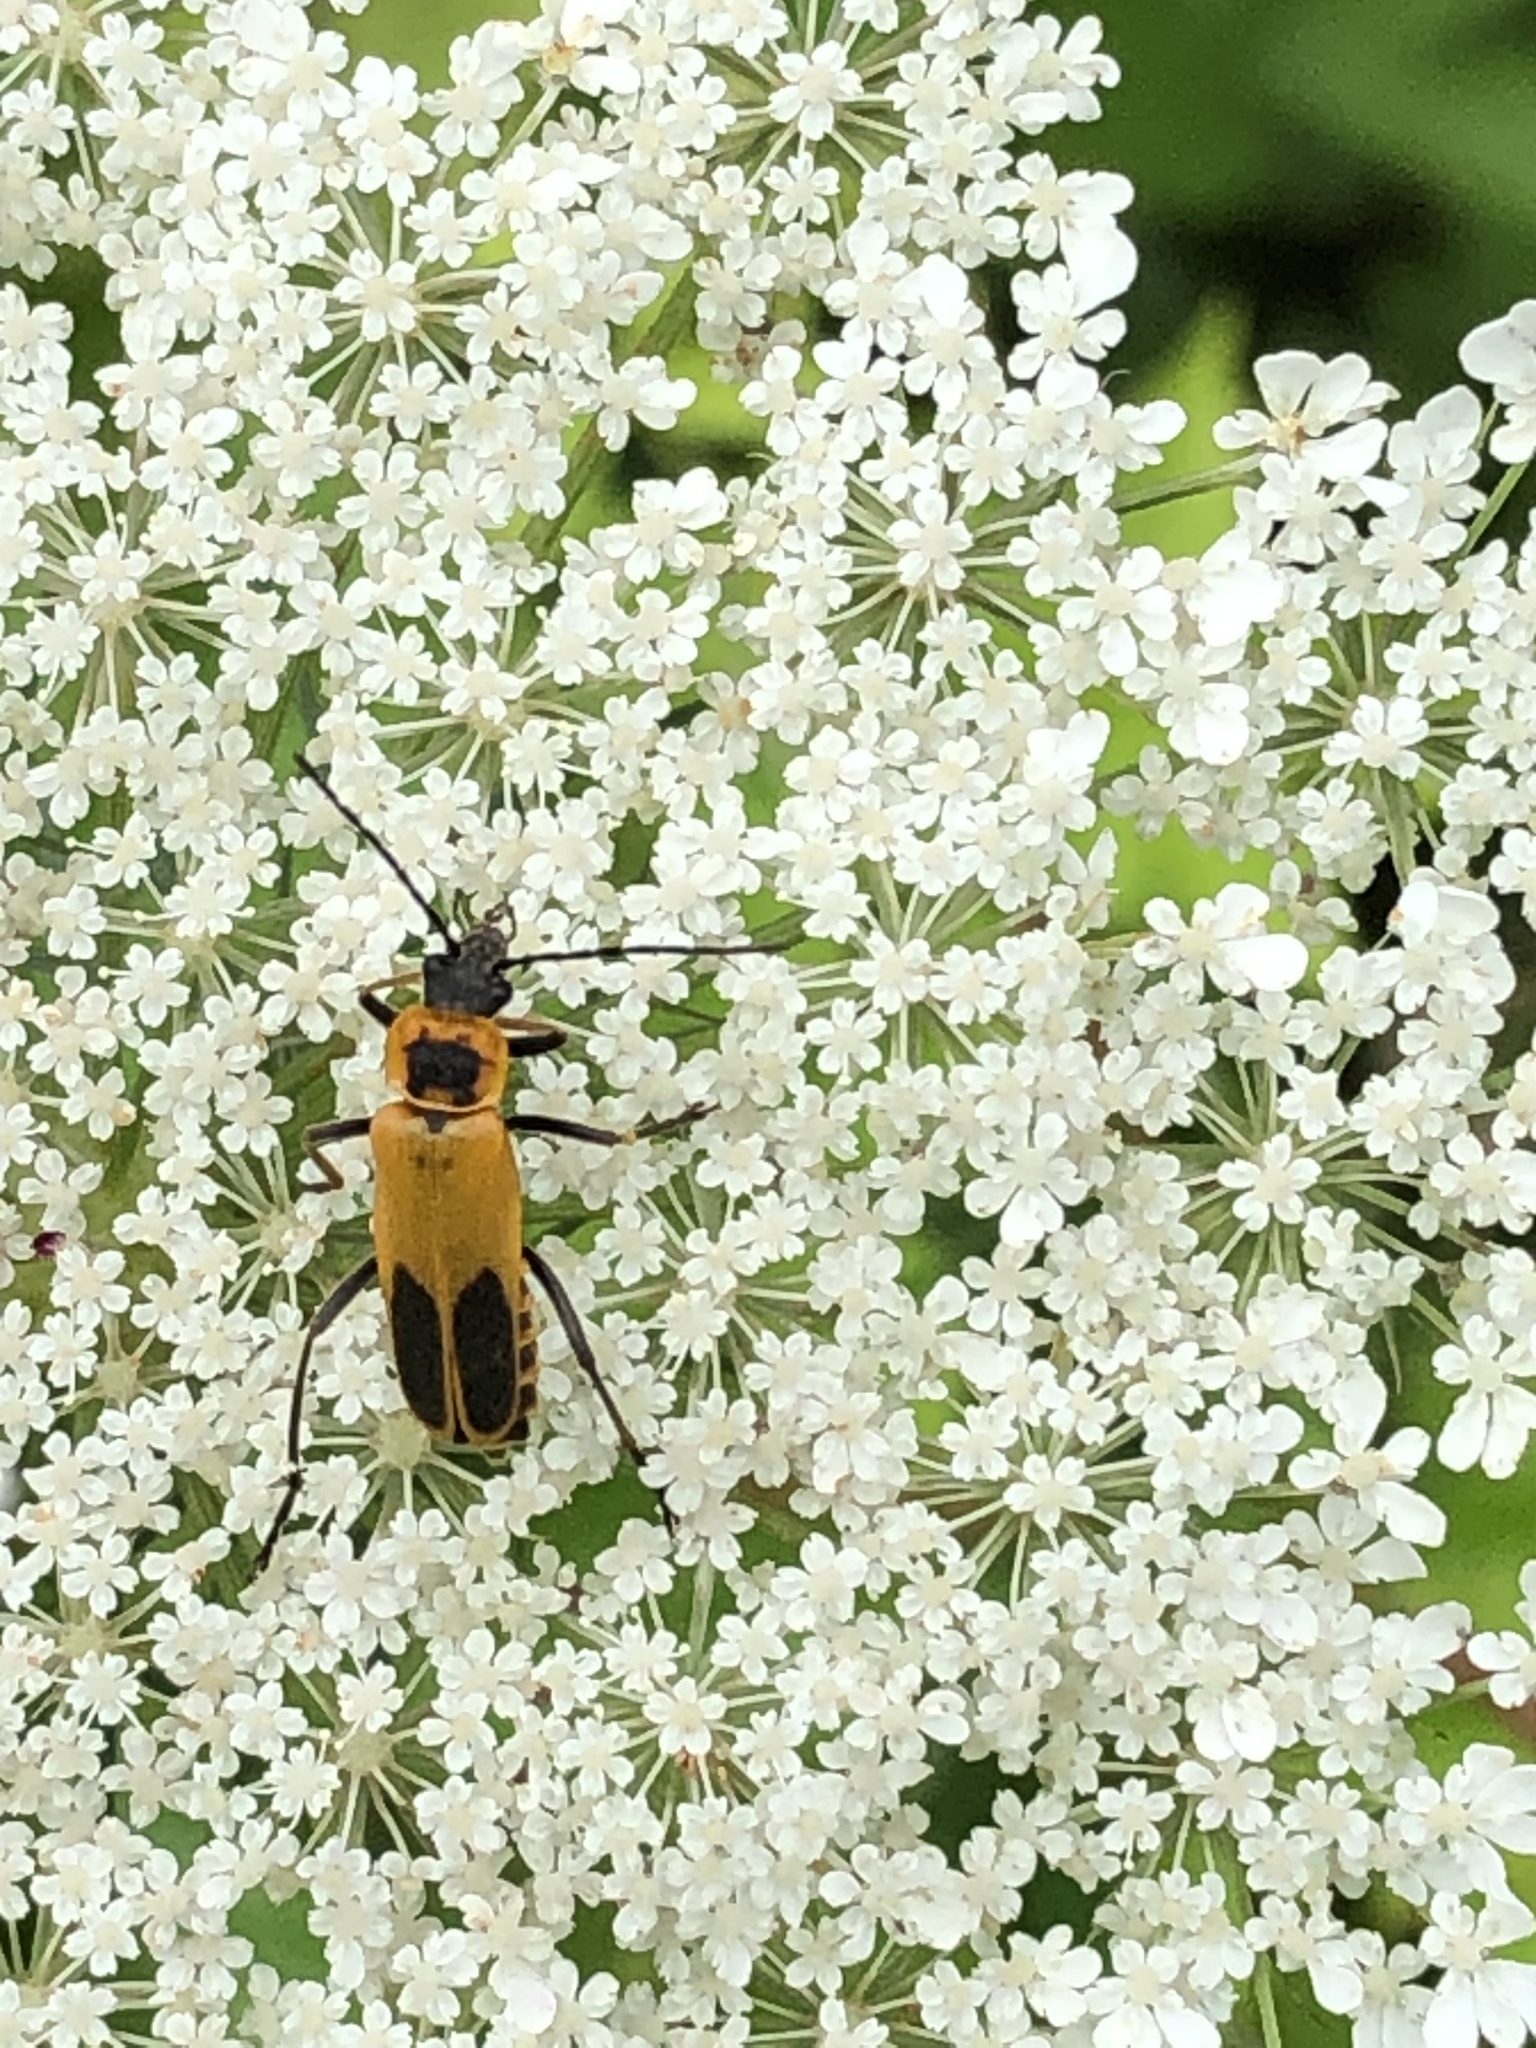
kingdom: Animalia
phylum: Arthropoda
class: Insecta
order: Coleoptera
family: Cantharidae
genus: Chauliognathus
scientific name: Chauliognathus pensylvanicus
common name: Goldenrod soldier beetle
